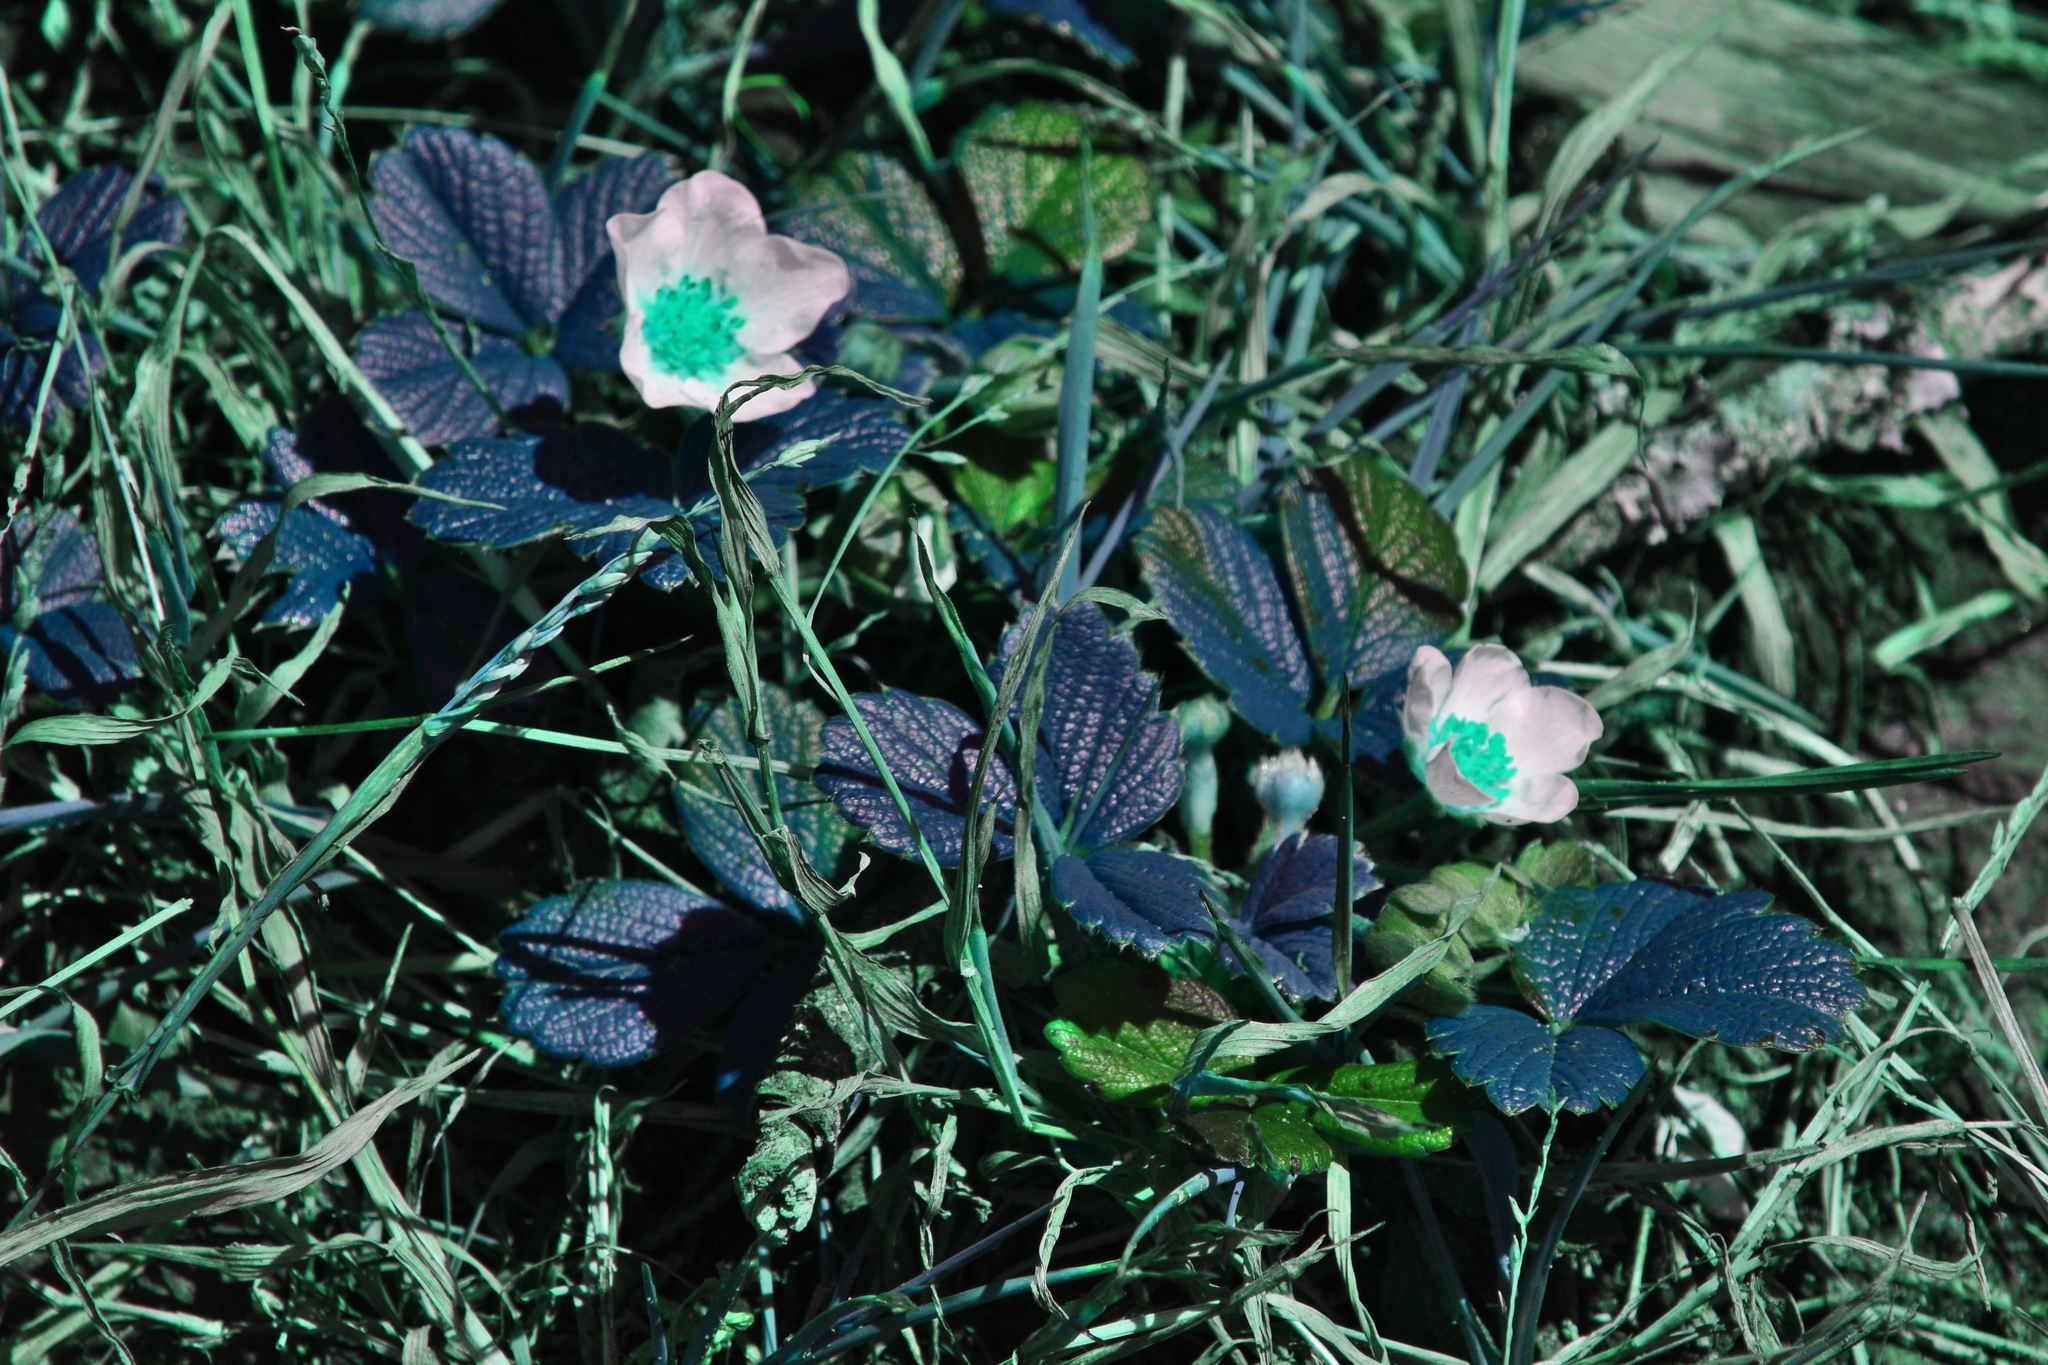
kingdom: Plantae
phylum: Tracheophyta
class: Magnoliopsida
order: Rosales
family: Rosaceae
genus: Fragaria
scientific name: Fragaria chiloensis
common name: Beach strawberry
